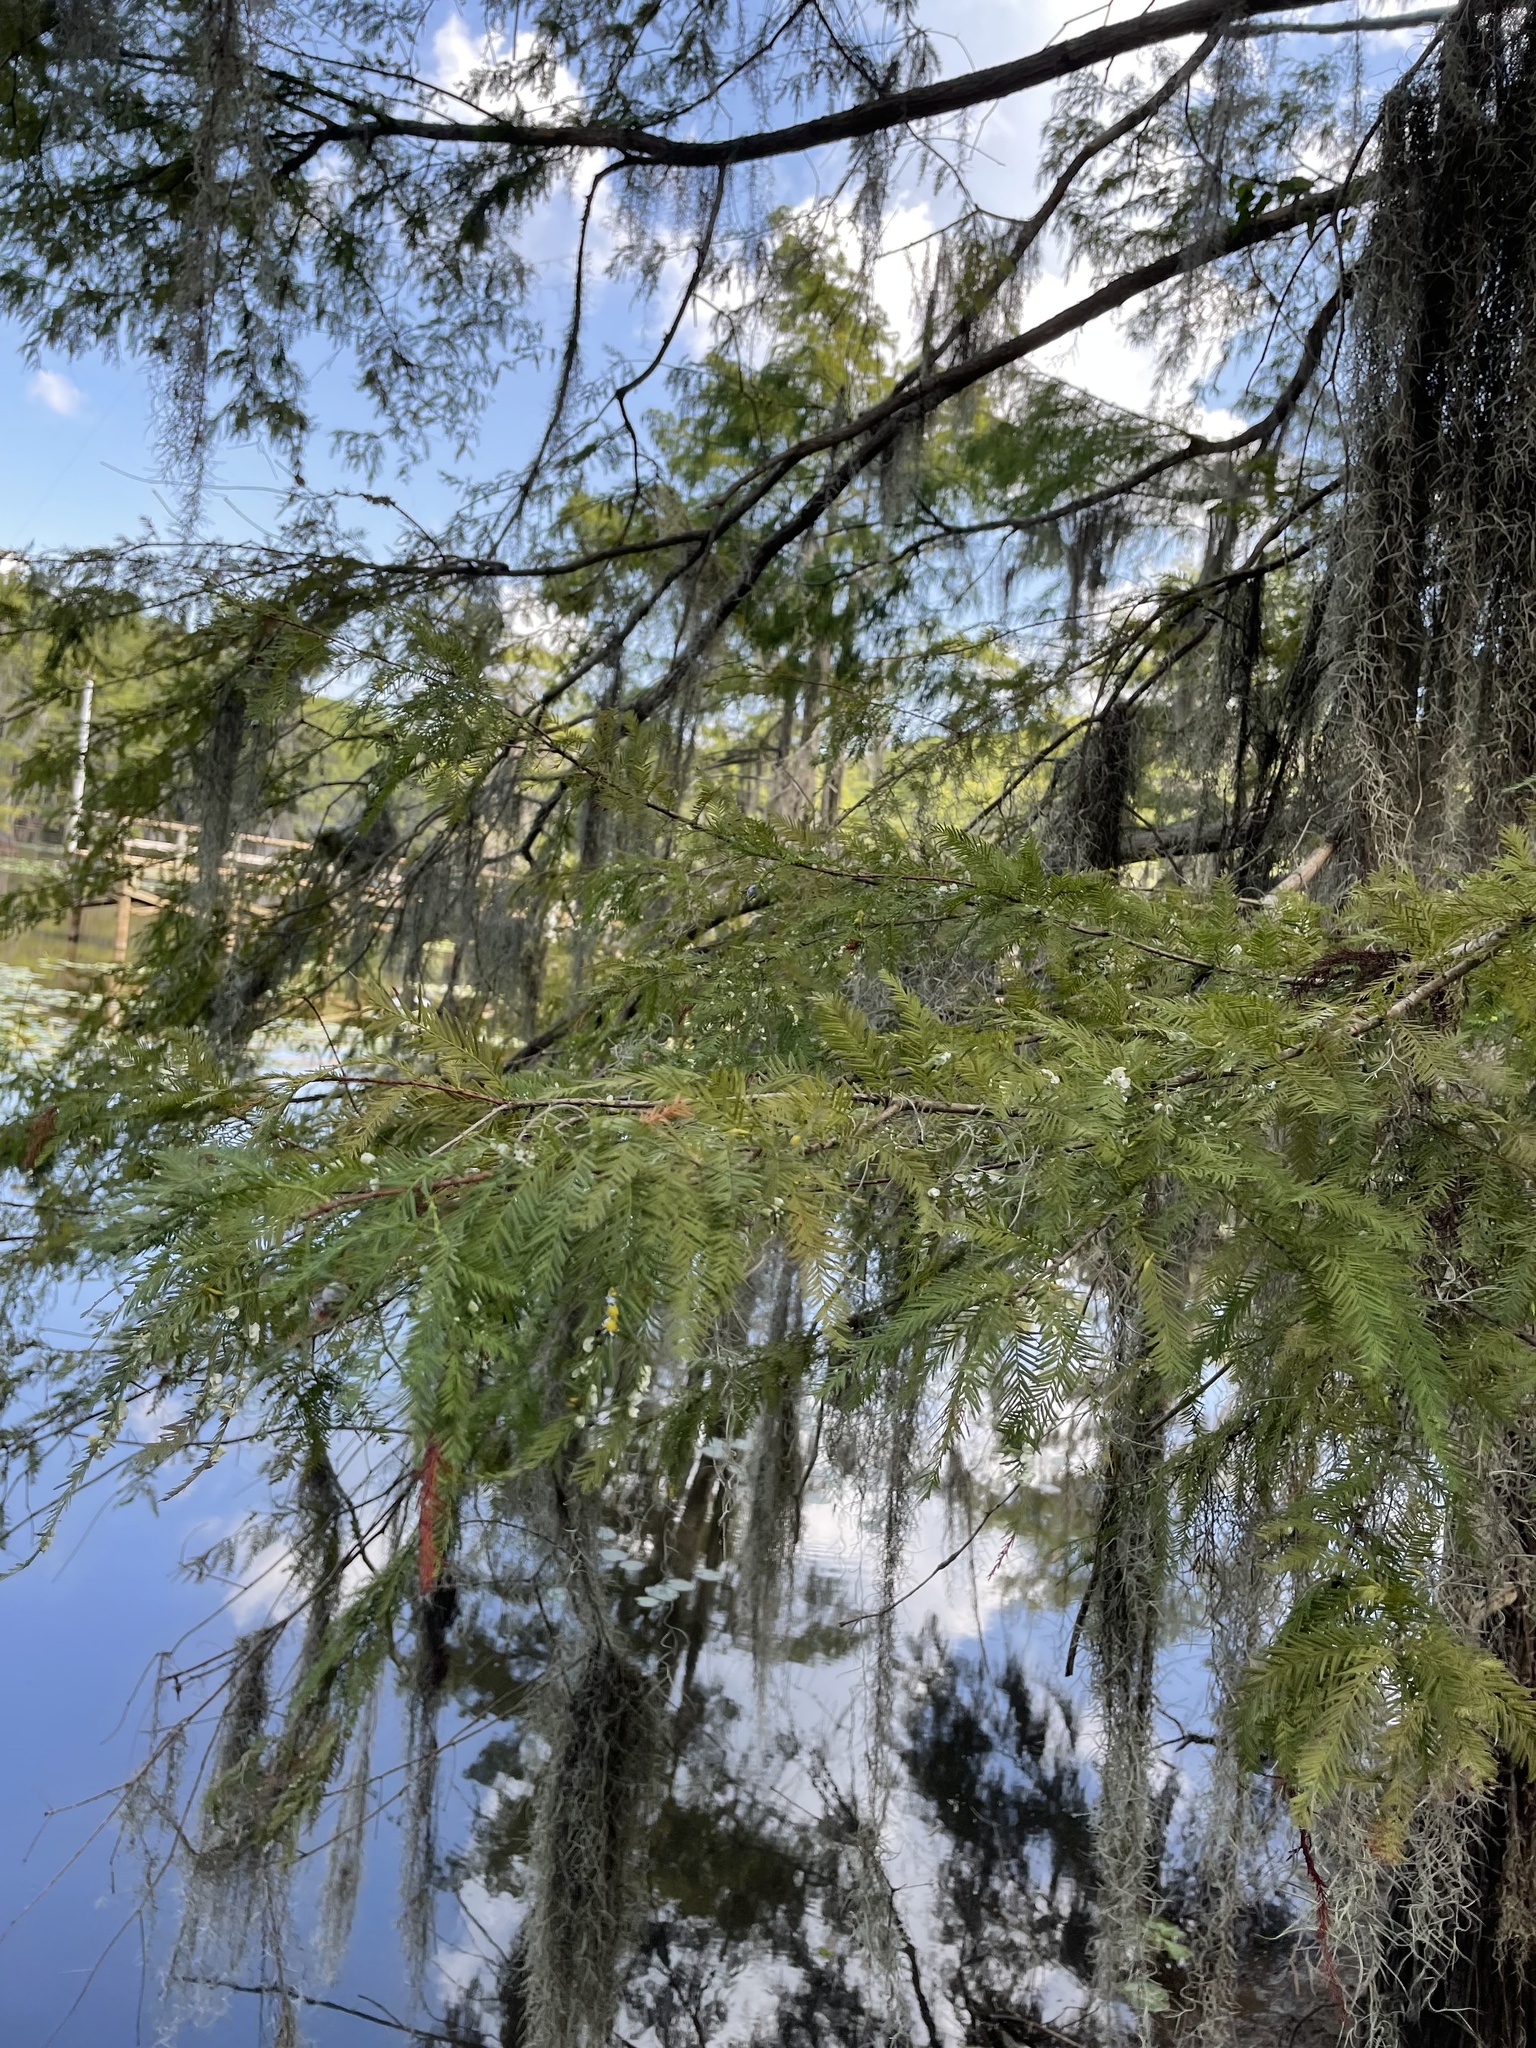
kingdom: Plantae
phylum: Tracheophyta
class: Pinopsida
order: Pinales
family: Cupressaceae
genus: Taxodium
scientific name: Taxodium distichum
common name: Bald cypress
